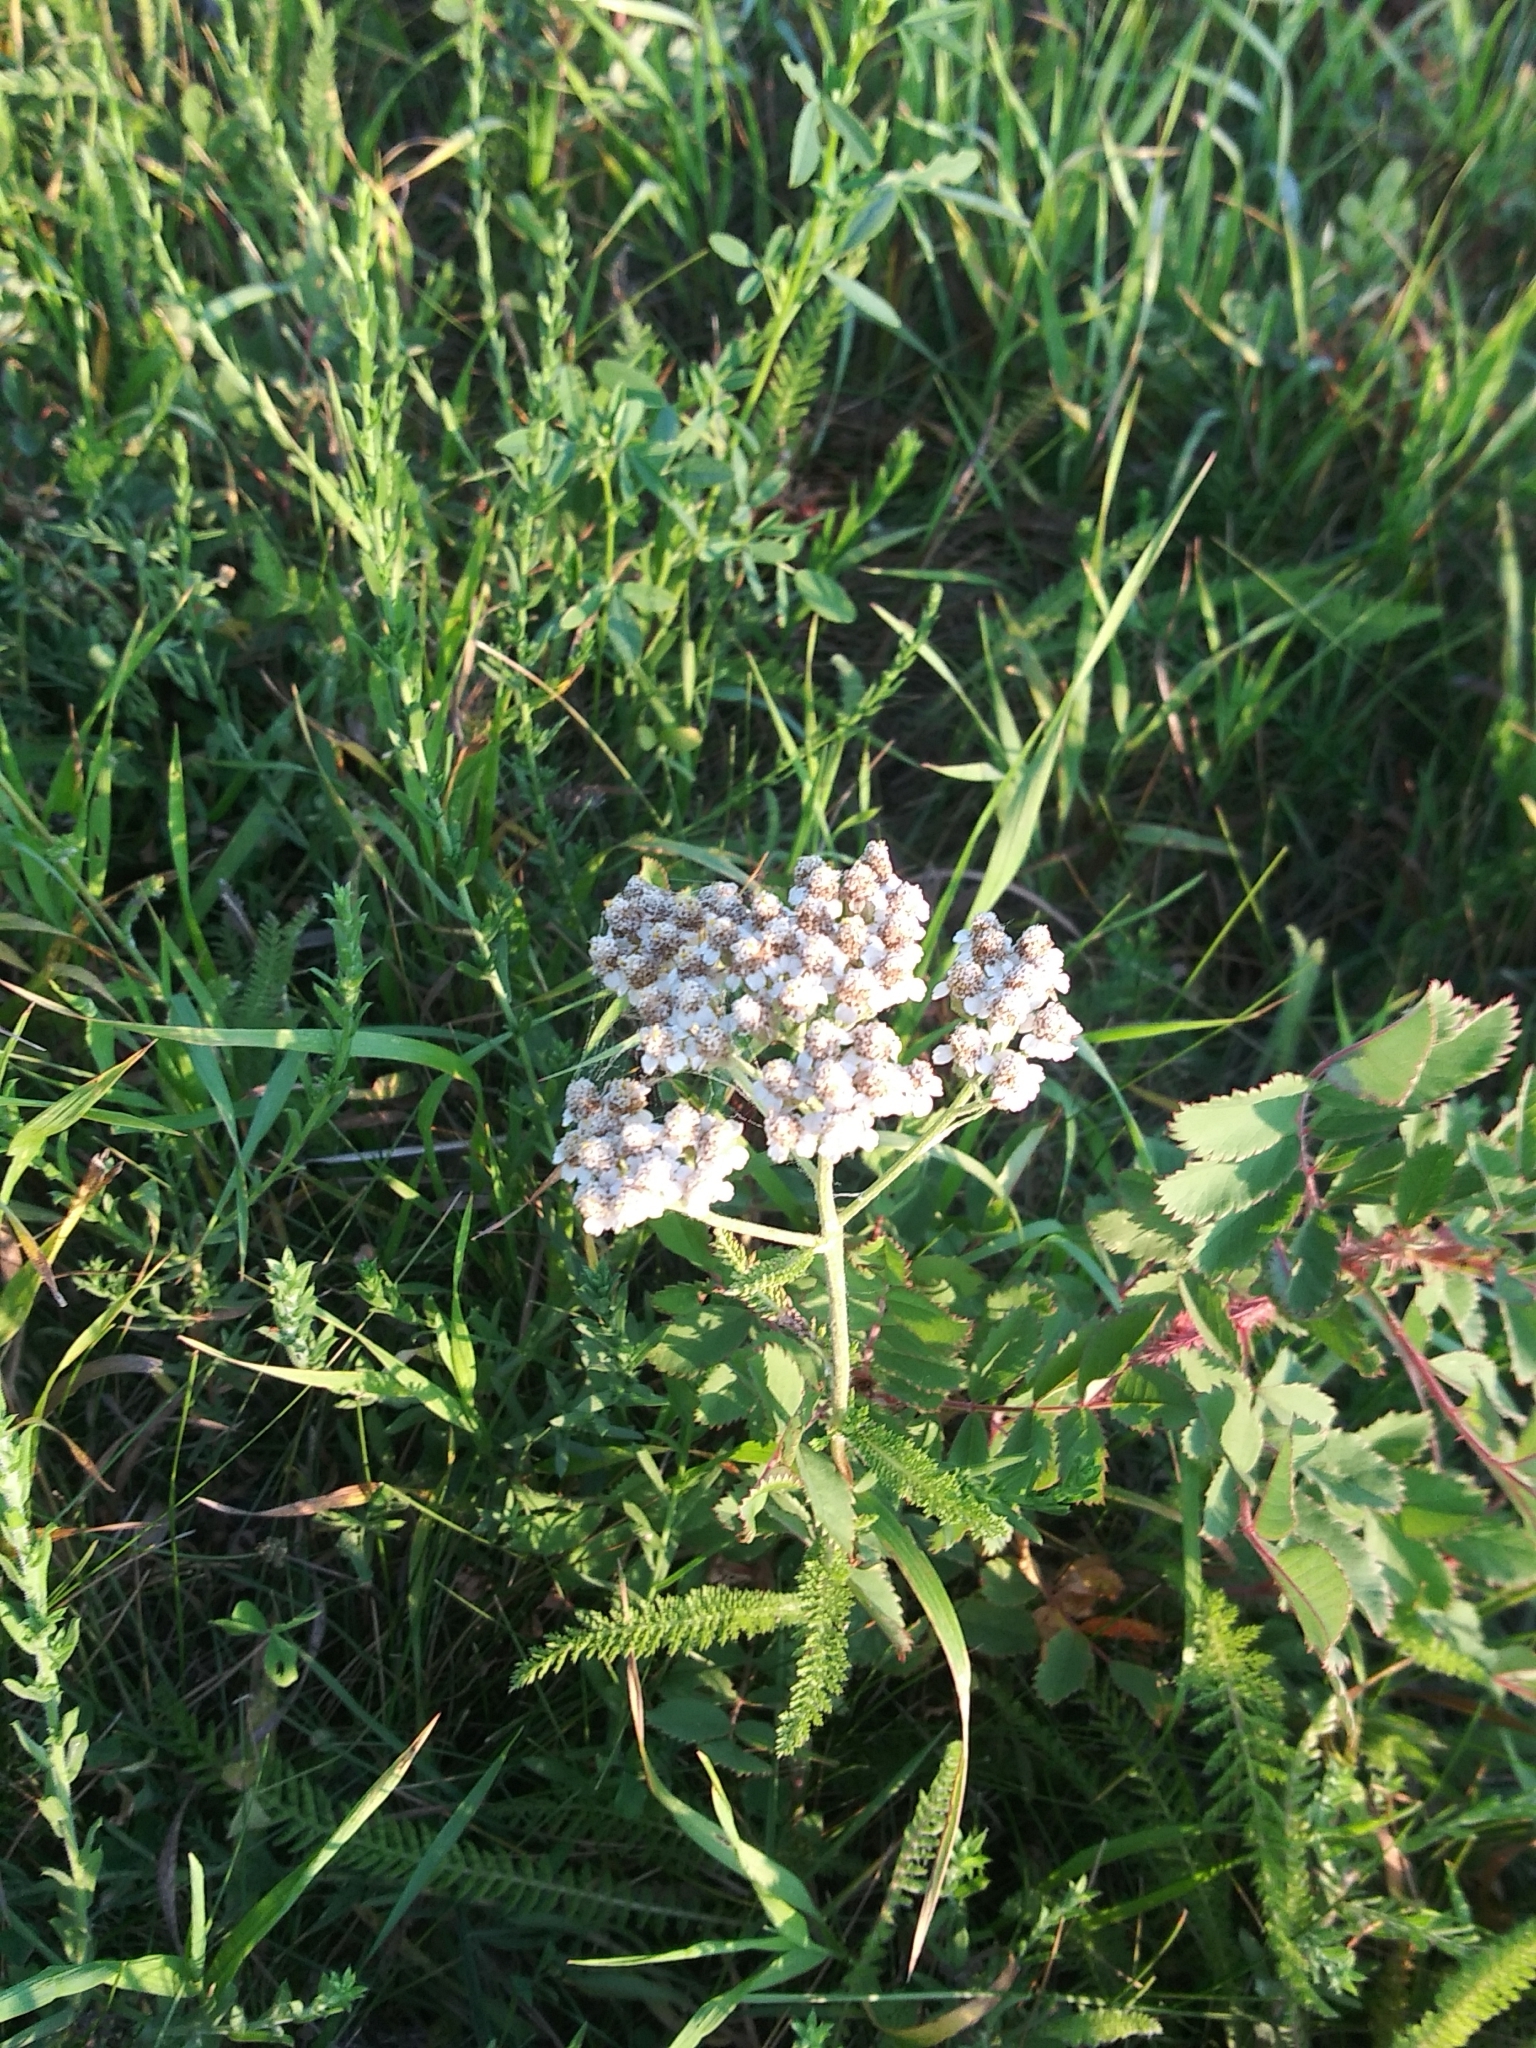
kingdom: Plantae
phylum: Tracheophyta
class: Magnoliopsida
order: Asterales
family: Asteraceae
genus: Achillea
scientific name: Achillea millefolium
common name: Yarrow
